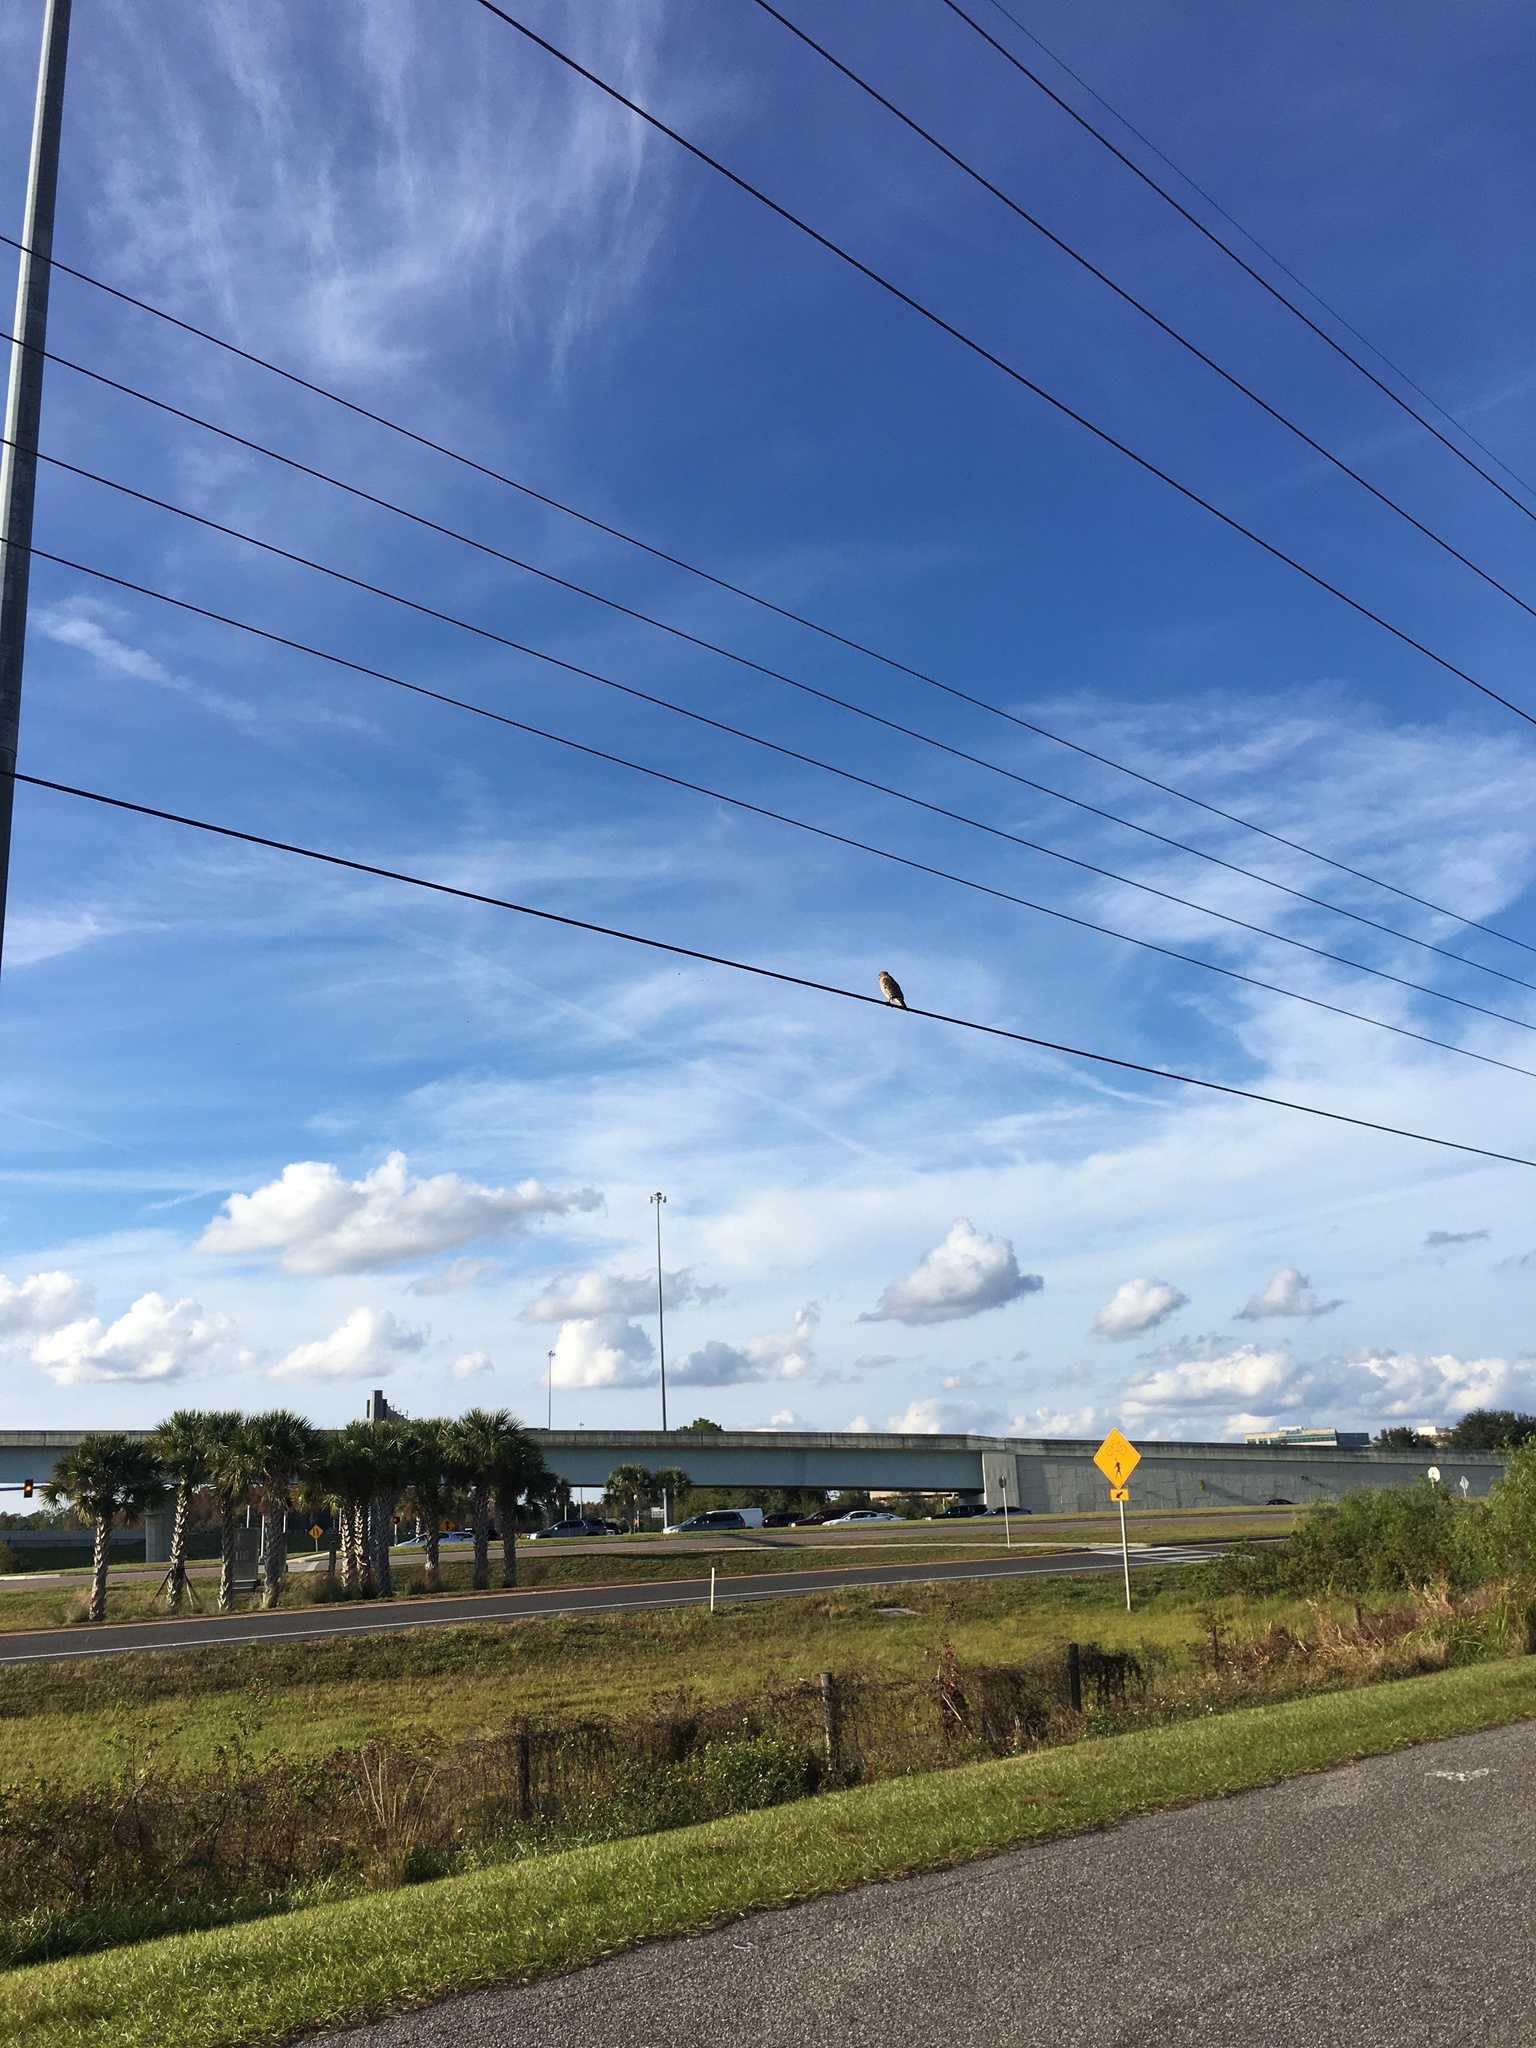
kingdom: Animalia
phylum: Chordata
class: Aves
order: Accipitriformes
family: Accipitridae
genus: Buteo
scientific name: Buteo lineatus
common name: Red-shouldered hawk
